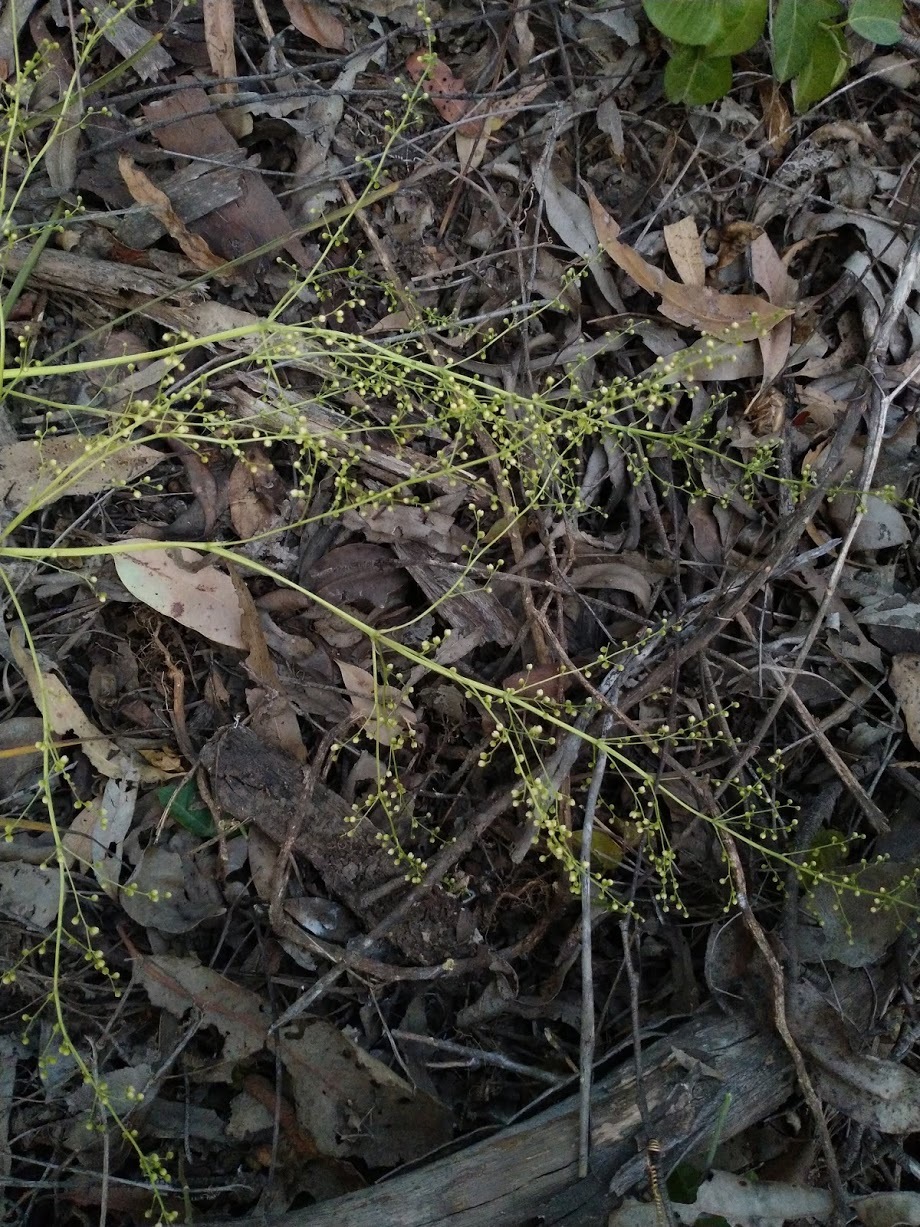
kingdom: Plantae
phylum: Tracheophyta
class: Liliopsida
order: Asparagales
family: Asparagaceae
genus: Lomandra
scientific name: Lomandra laxa
